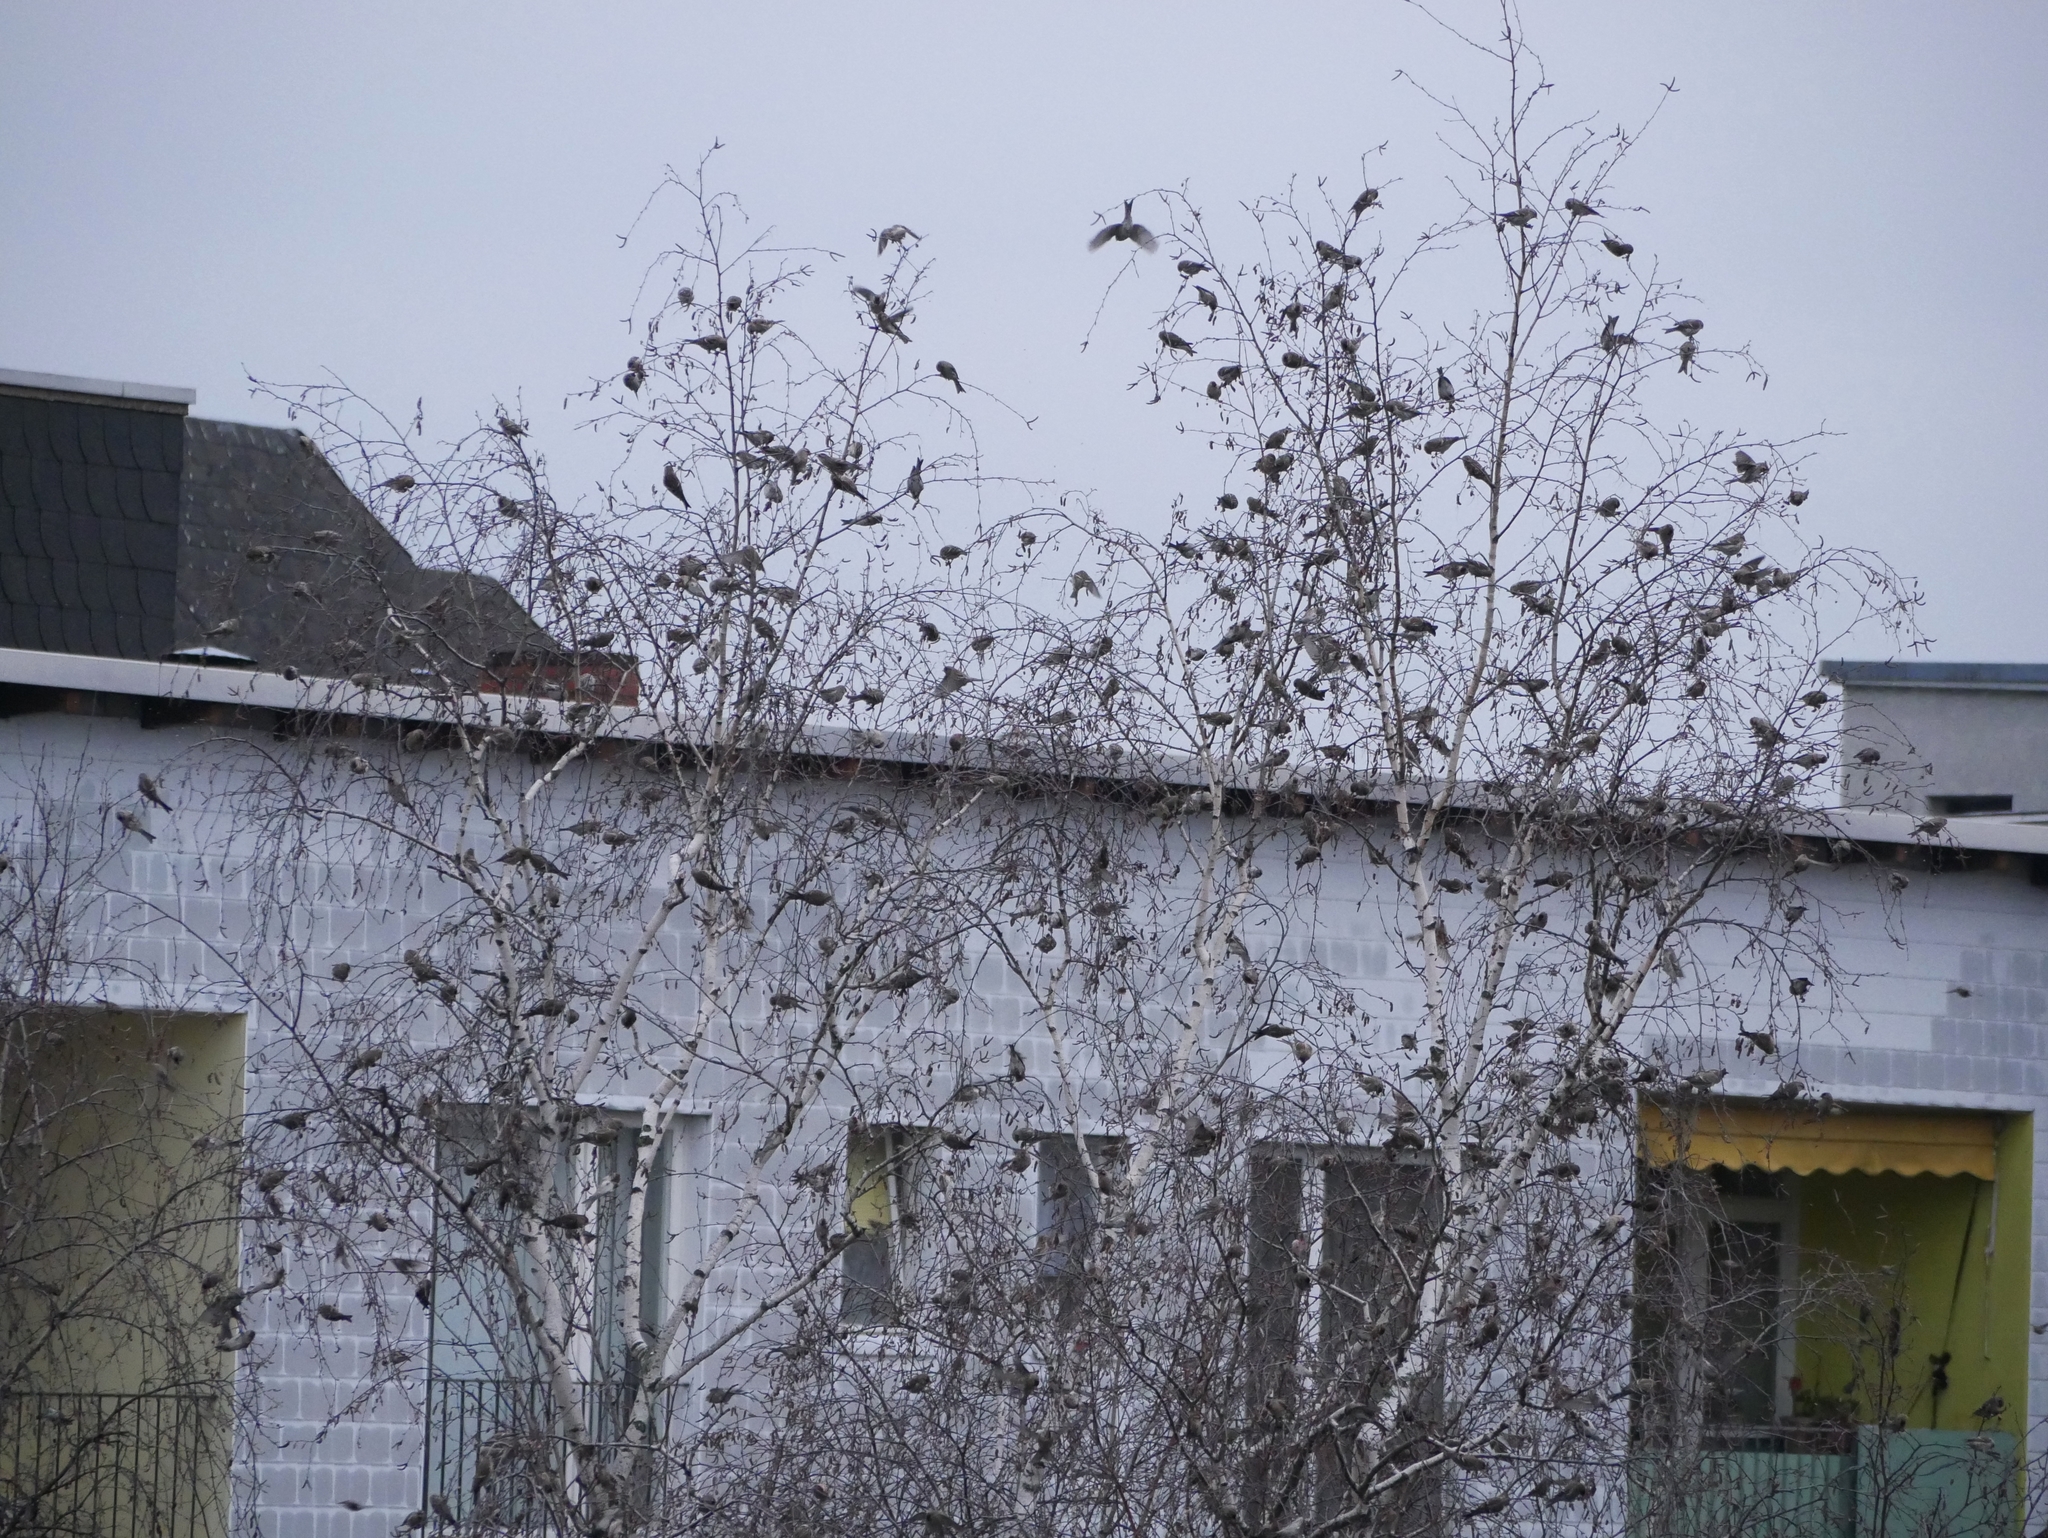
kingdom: Animalia
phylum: Chordata
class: Aves
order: Passeriformes
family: Fringillidae
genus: Acanthis
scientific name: Acanthis flammea
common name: Common redpoll
